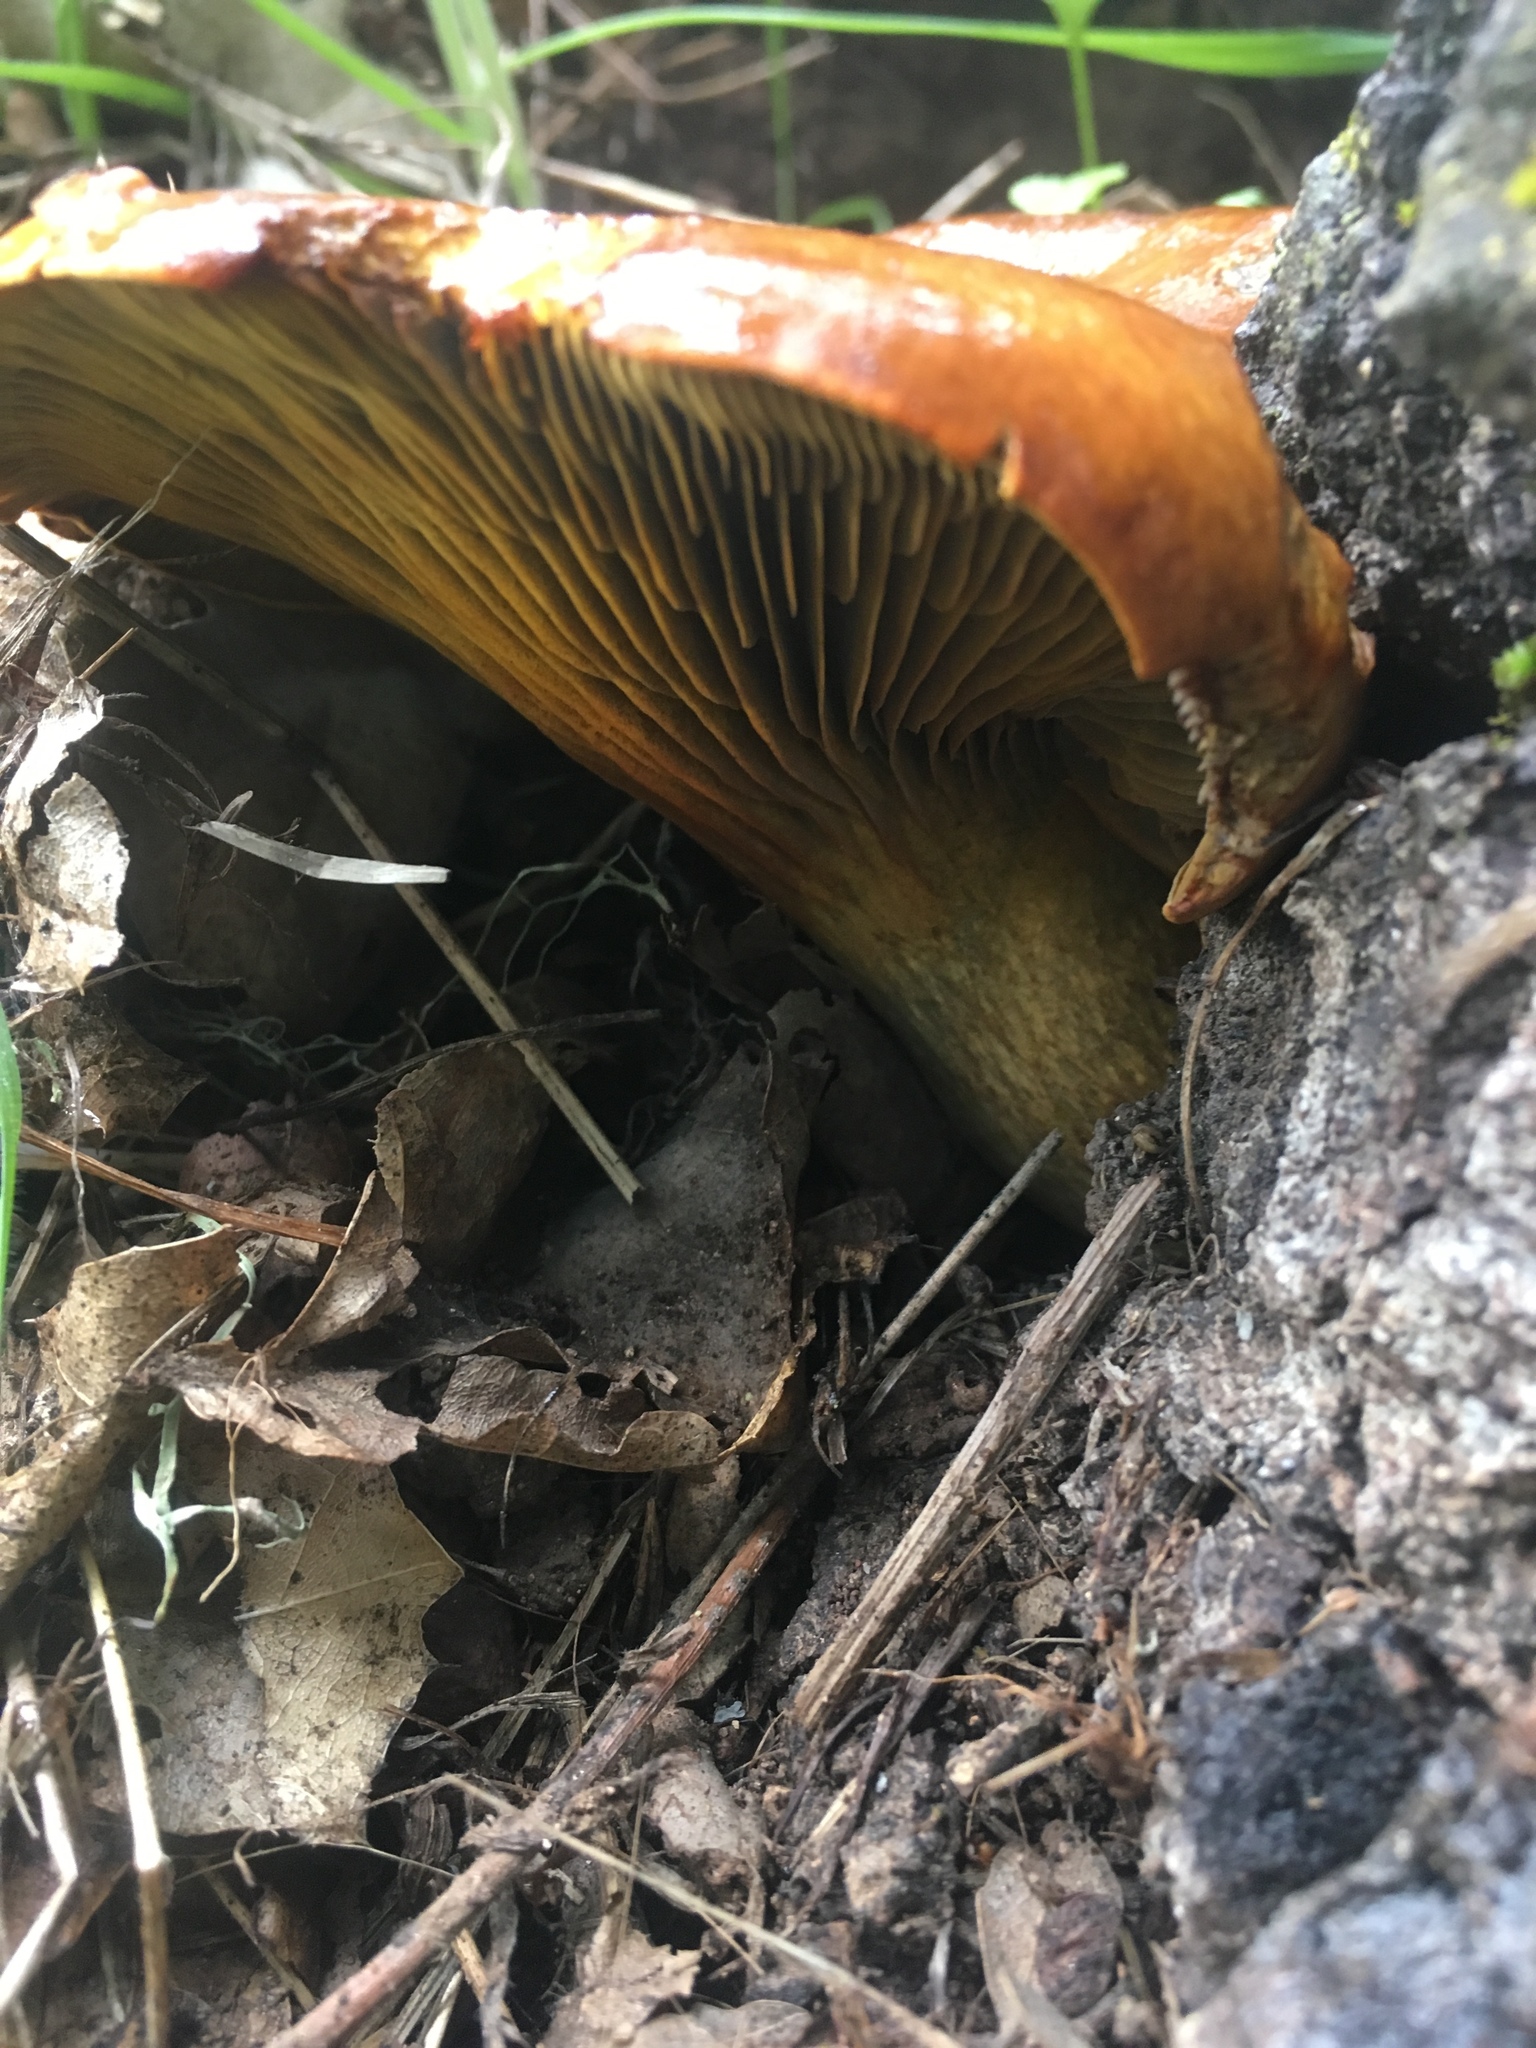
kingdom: Fungi
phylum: Basidiomycota
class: Agaricomycetes
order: Agaricales
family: Omphalotaceae
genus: Omphalotus
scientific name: Omphalotus olivascens
